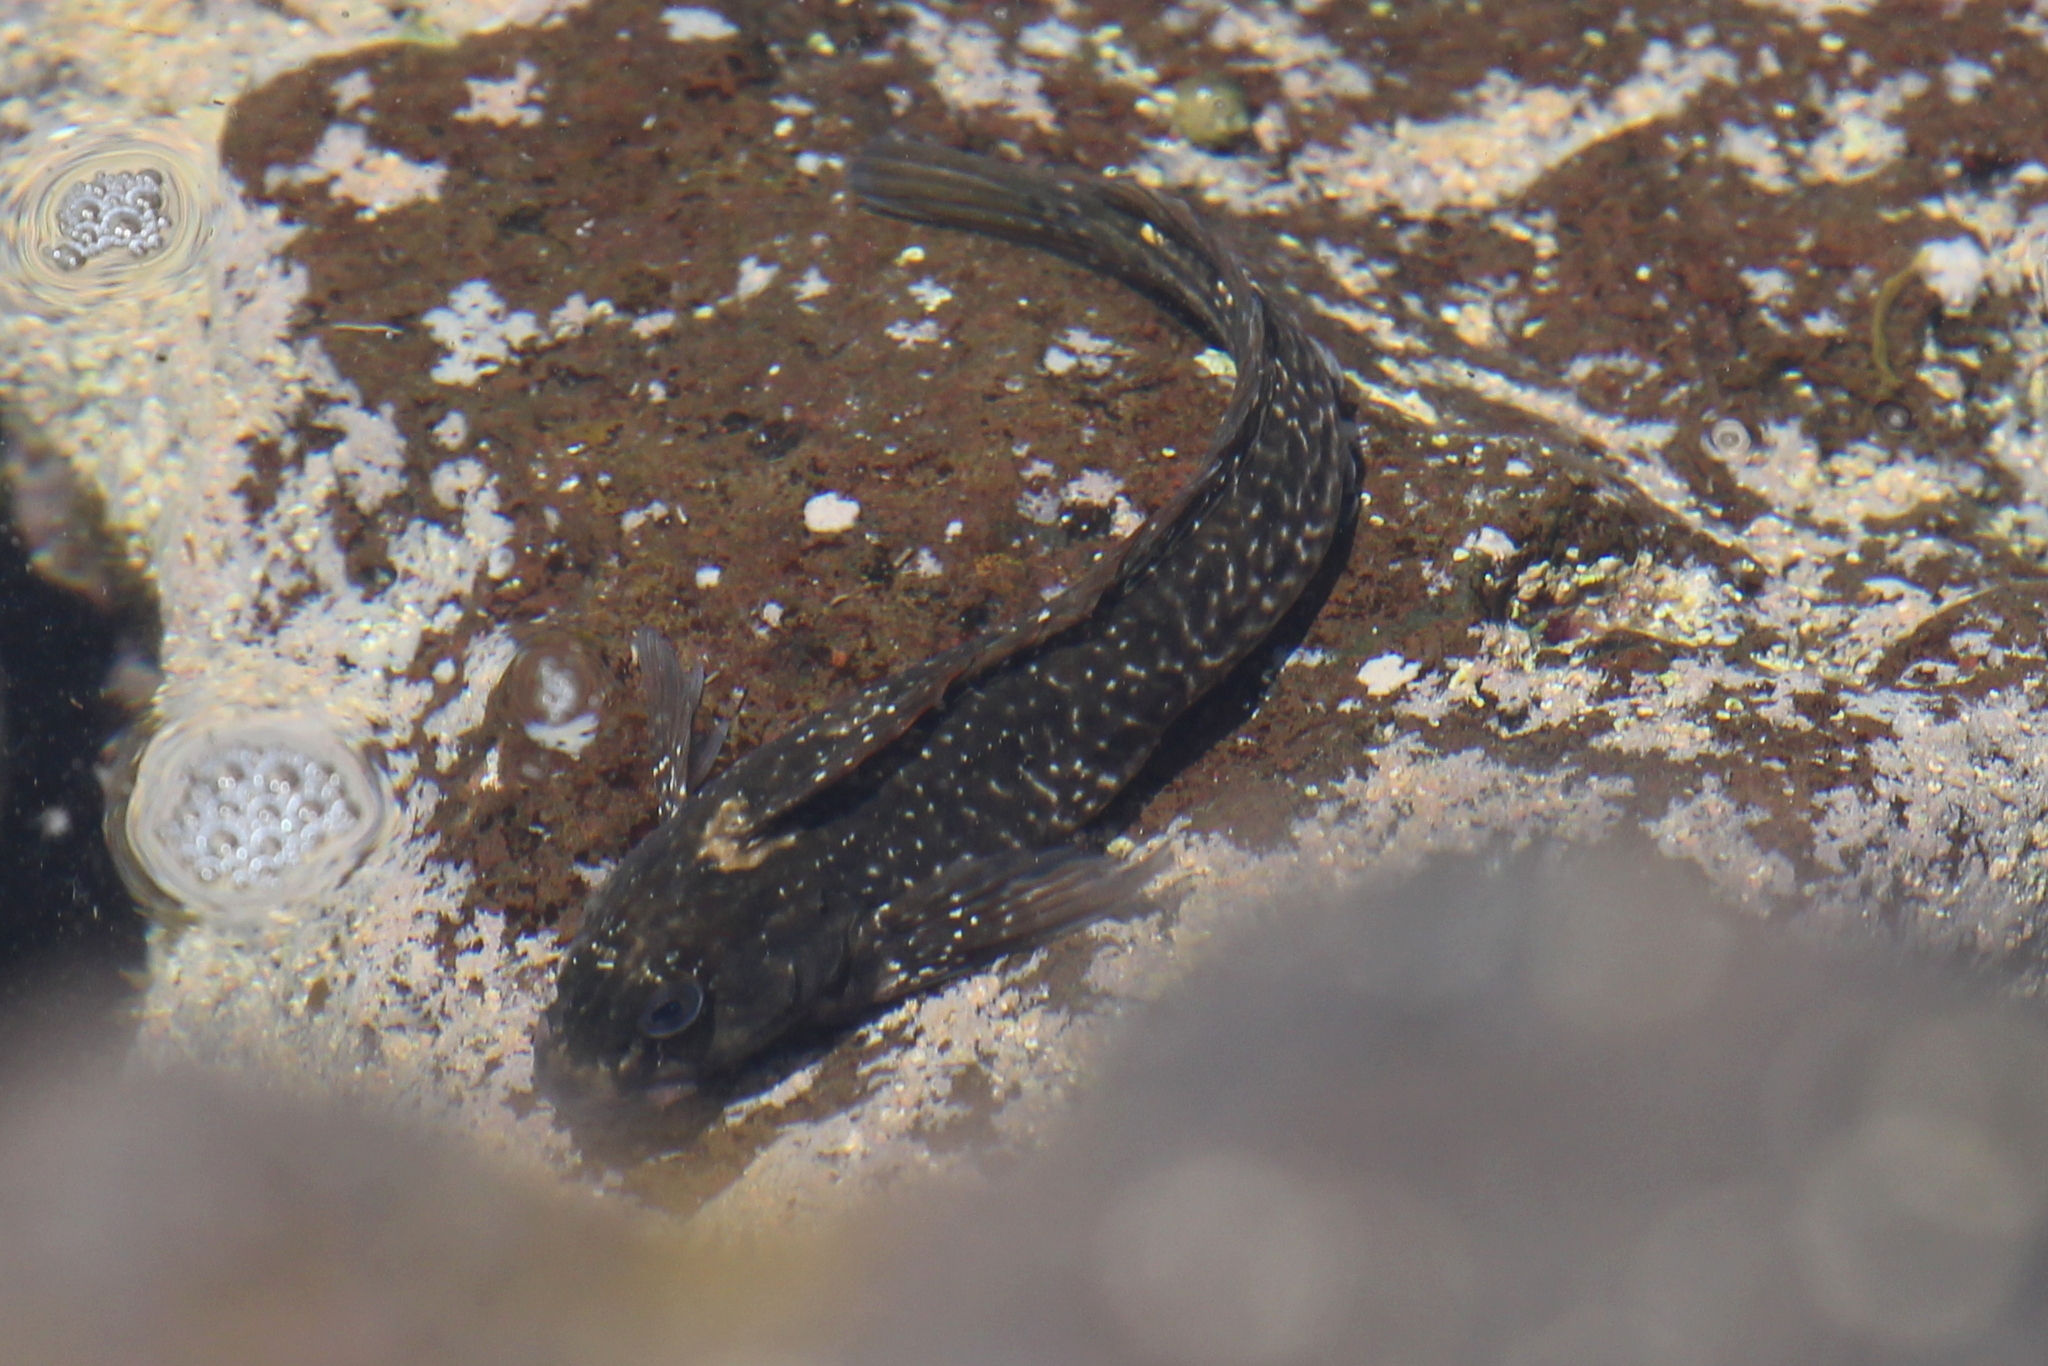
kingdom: Animalia
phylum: Chordata
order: Perciformes
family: Blenniidae
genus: Parablennius
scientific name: Parablennius parvicornis
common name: Rock-pool blenny
